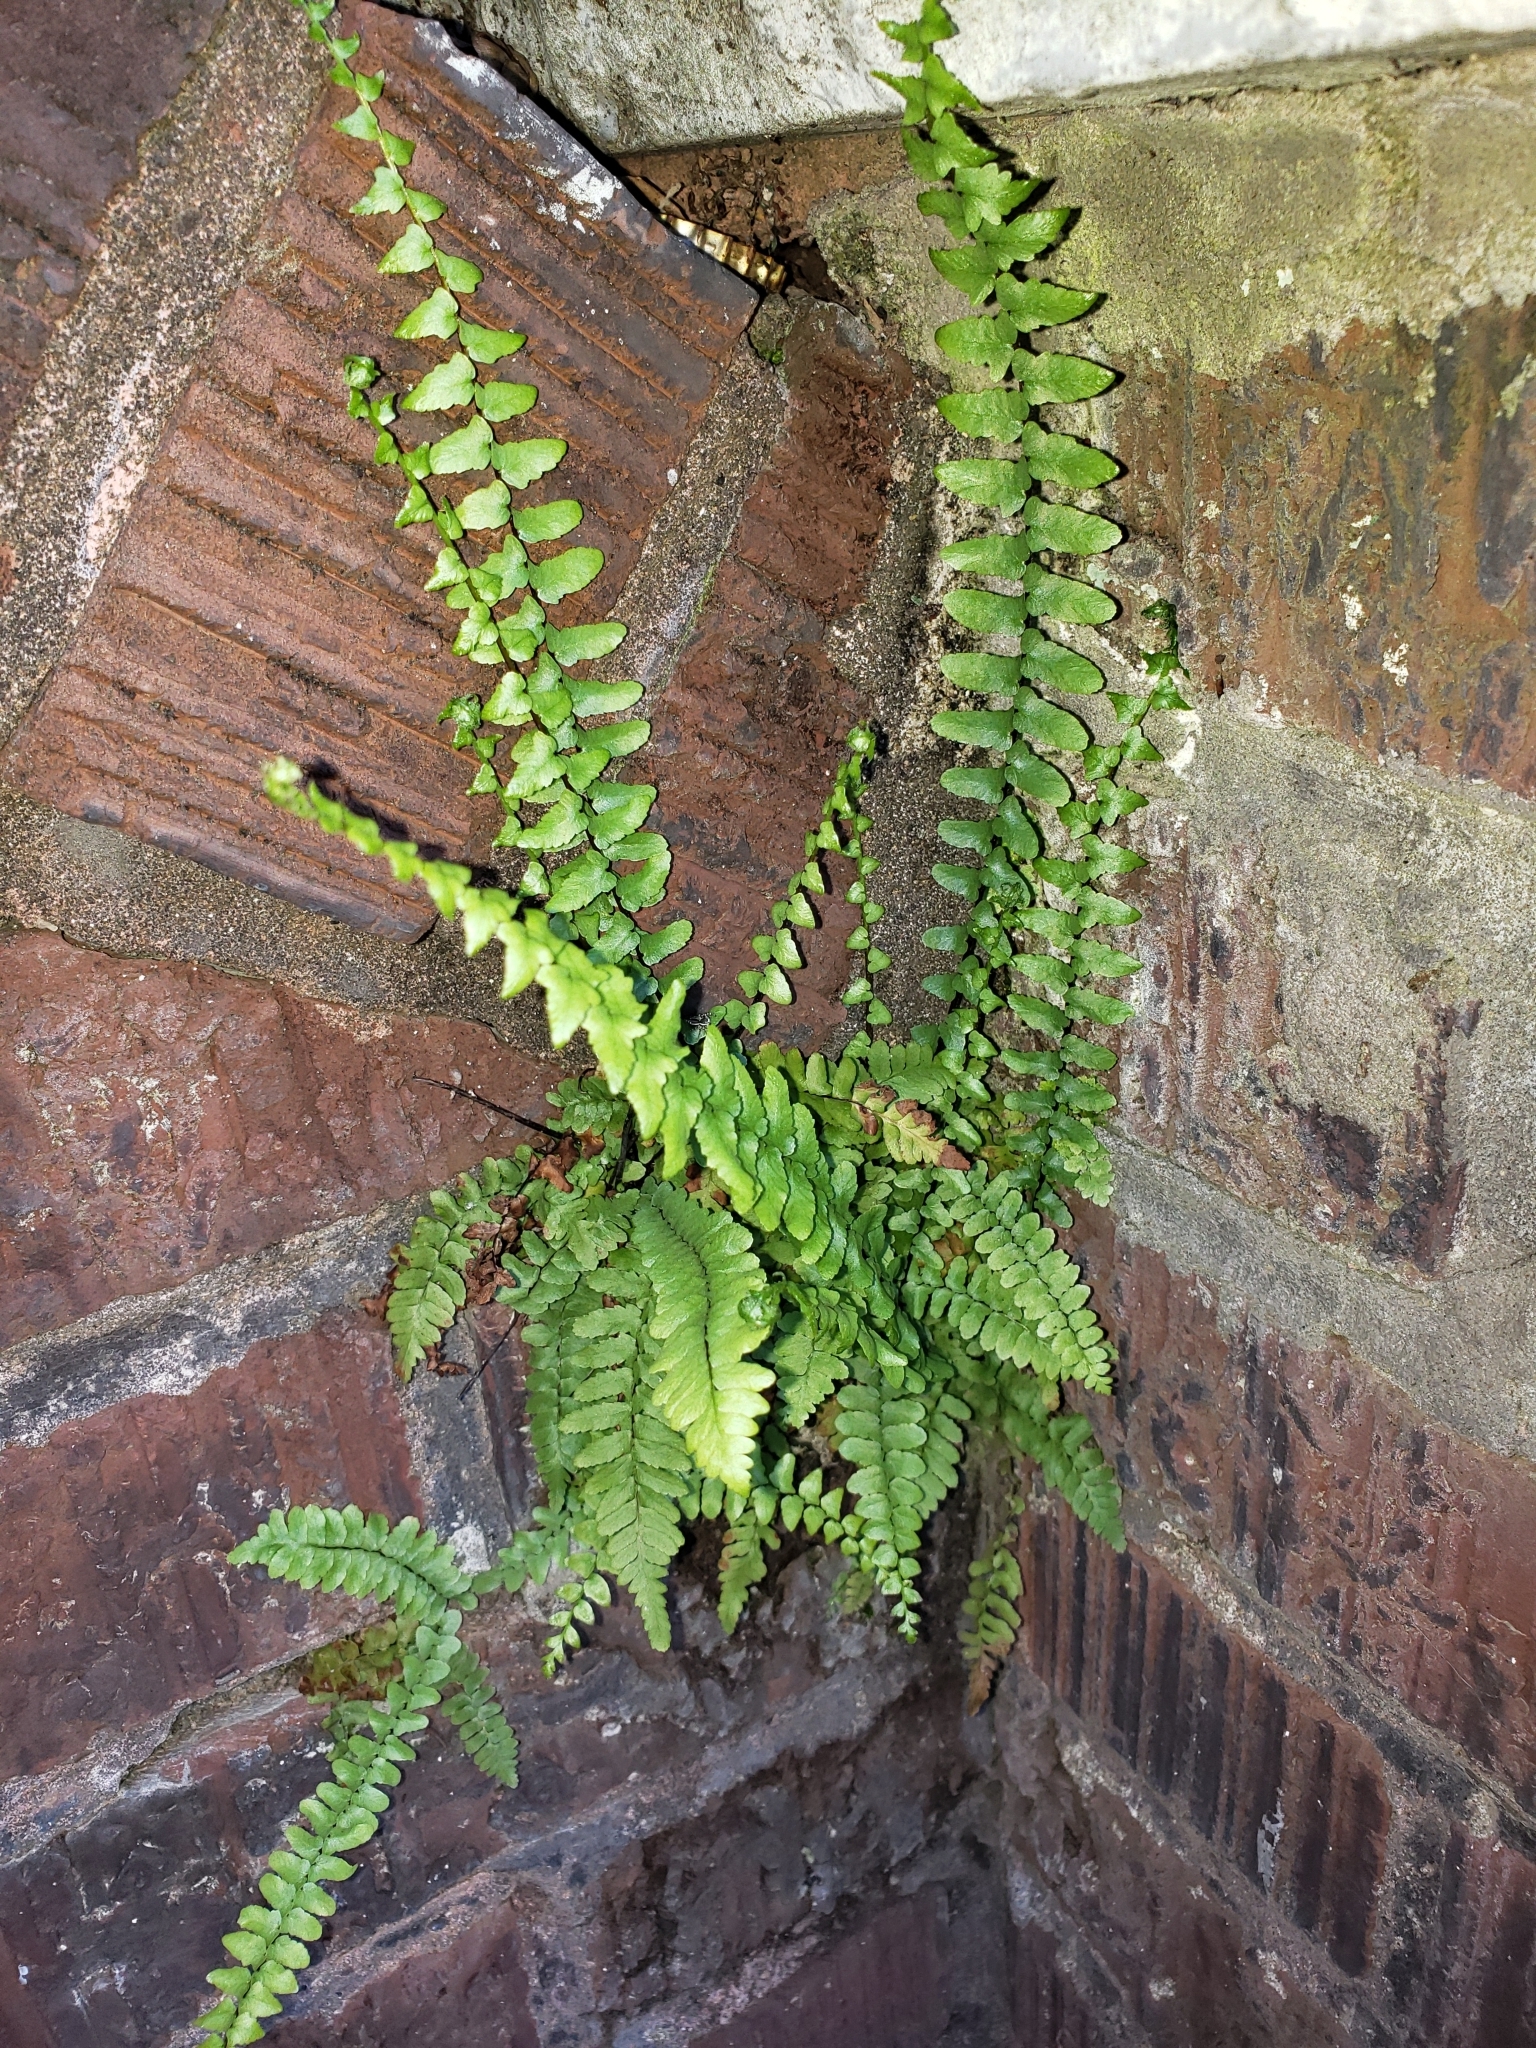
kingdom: Plantae
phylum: Tracheophyta
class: Polypodiopsida
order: Polypodiales
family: Aspleniaceae
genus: Asplenium
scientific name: Asplenium platyneuron
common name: Ebony spleenwort
